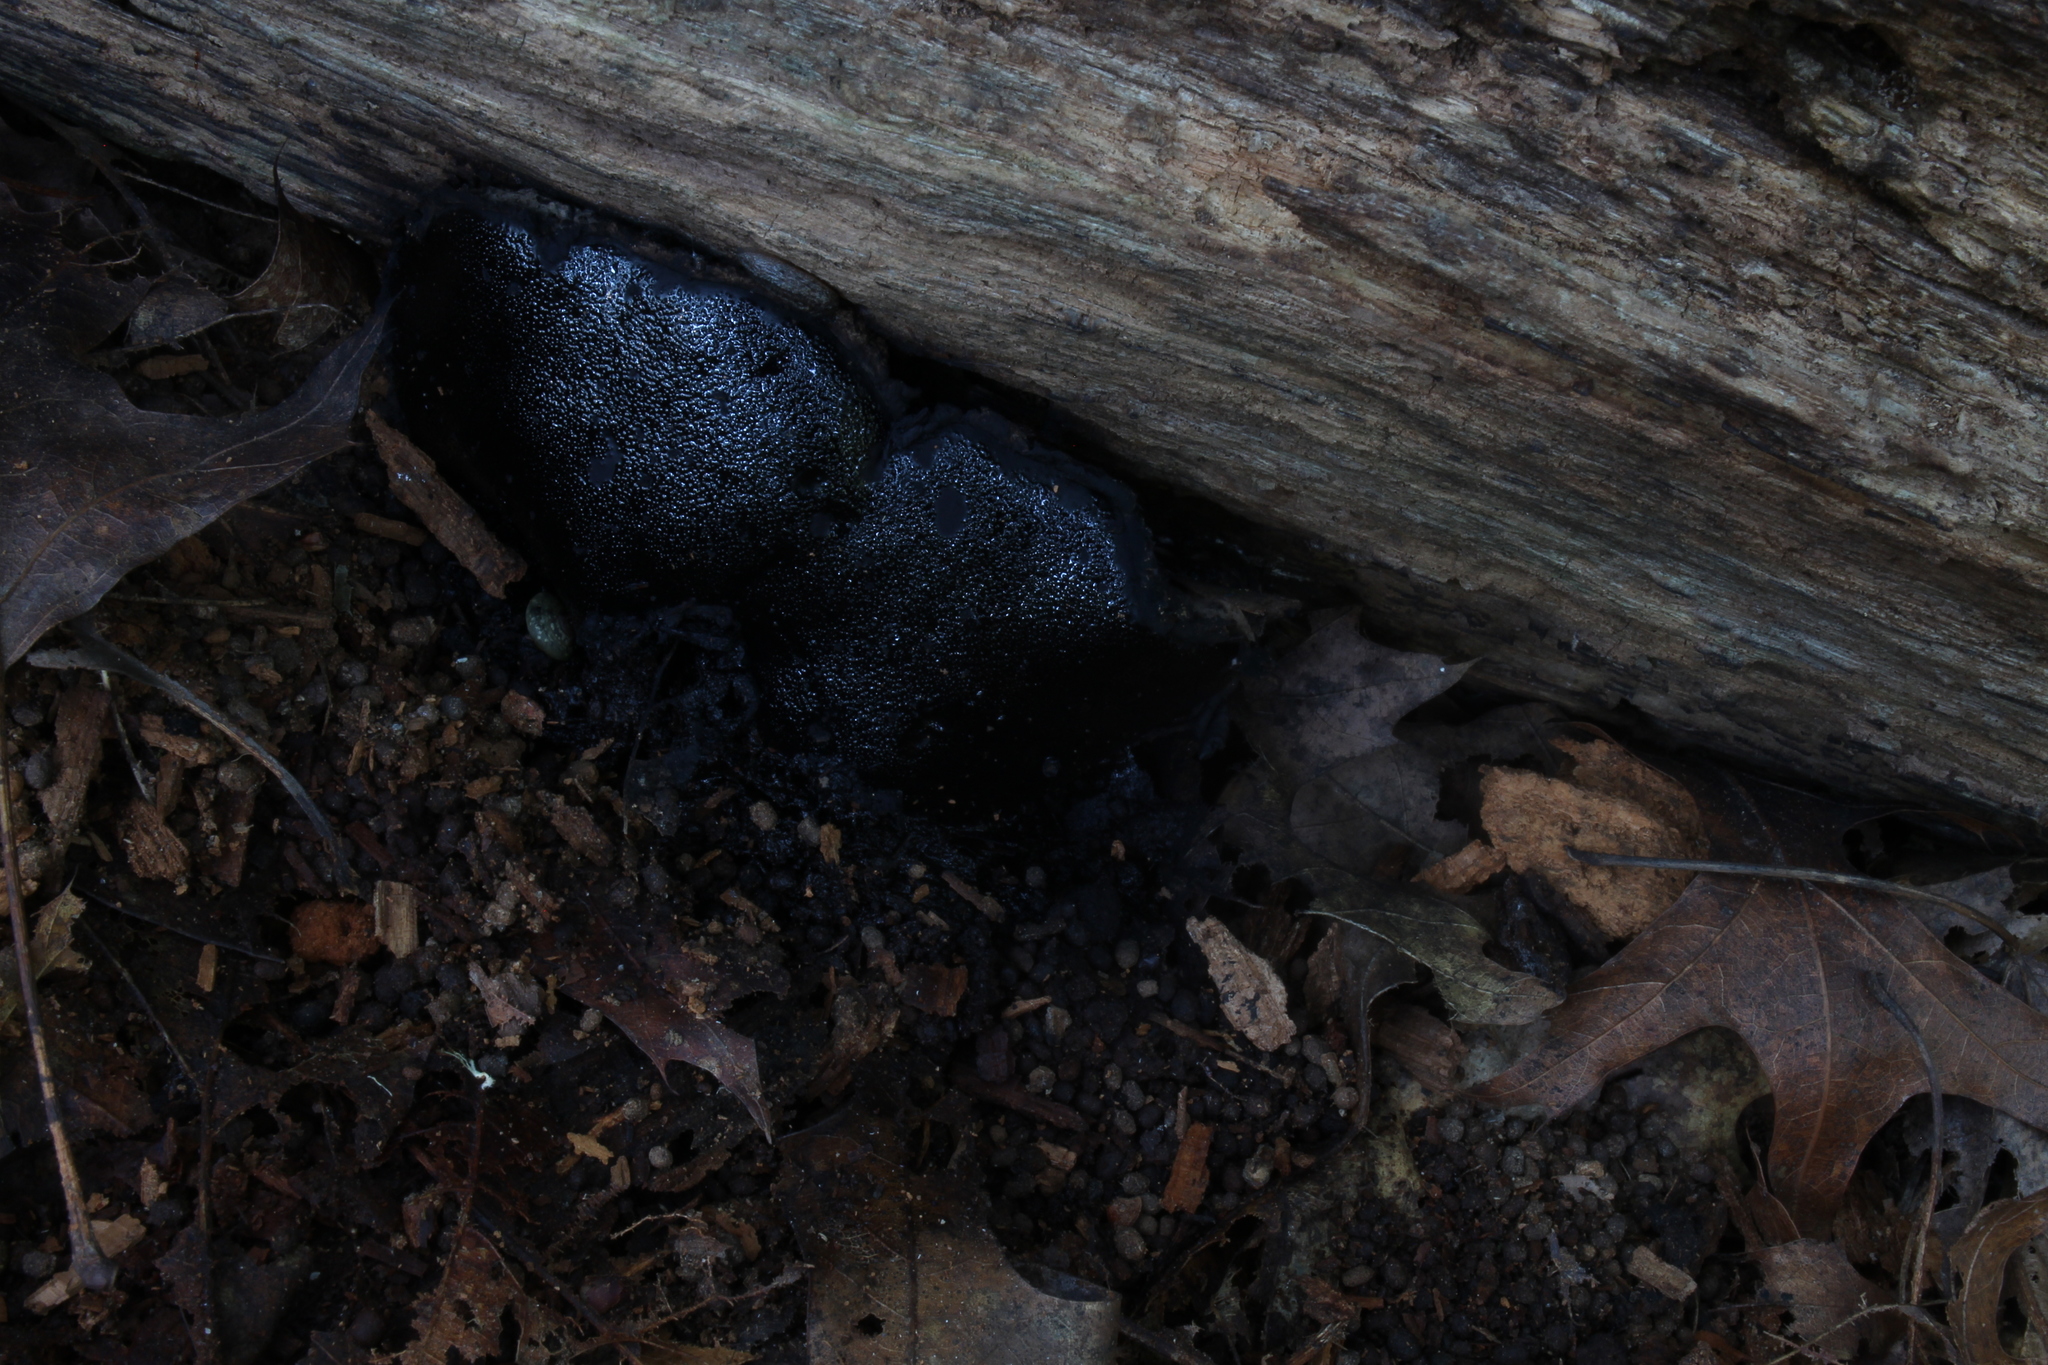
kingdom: Fungi
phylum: Ascomycota
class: Sordariomycetes
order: Boliniales
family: Boliniaceae
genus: Camarops
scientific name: Camarops petersii
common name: Dog's nose fungus
